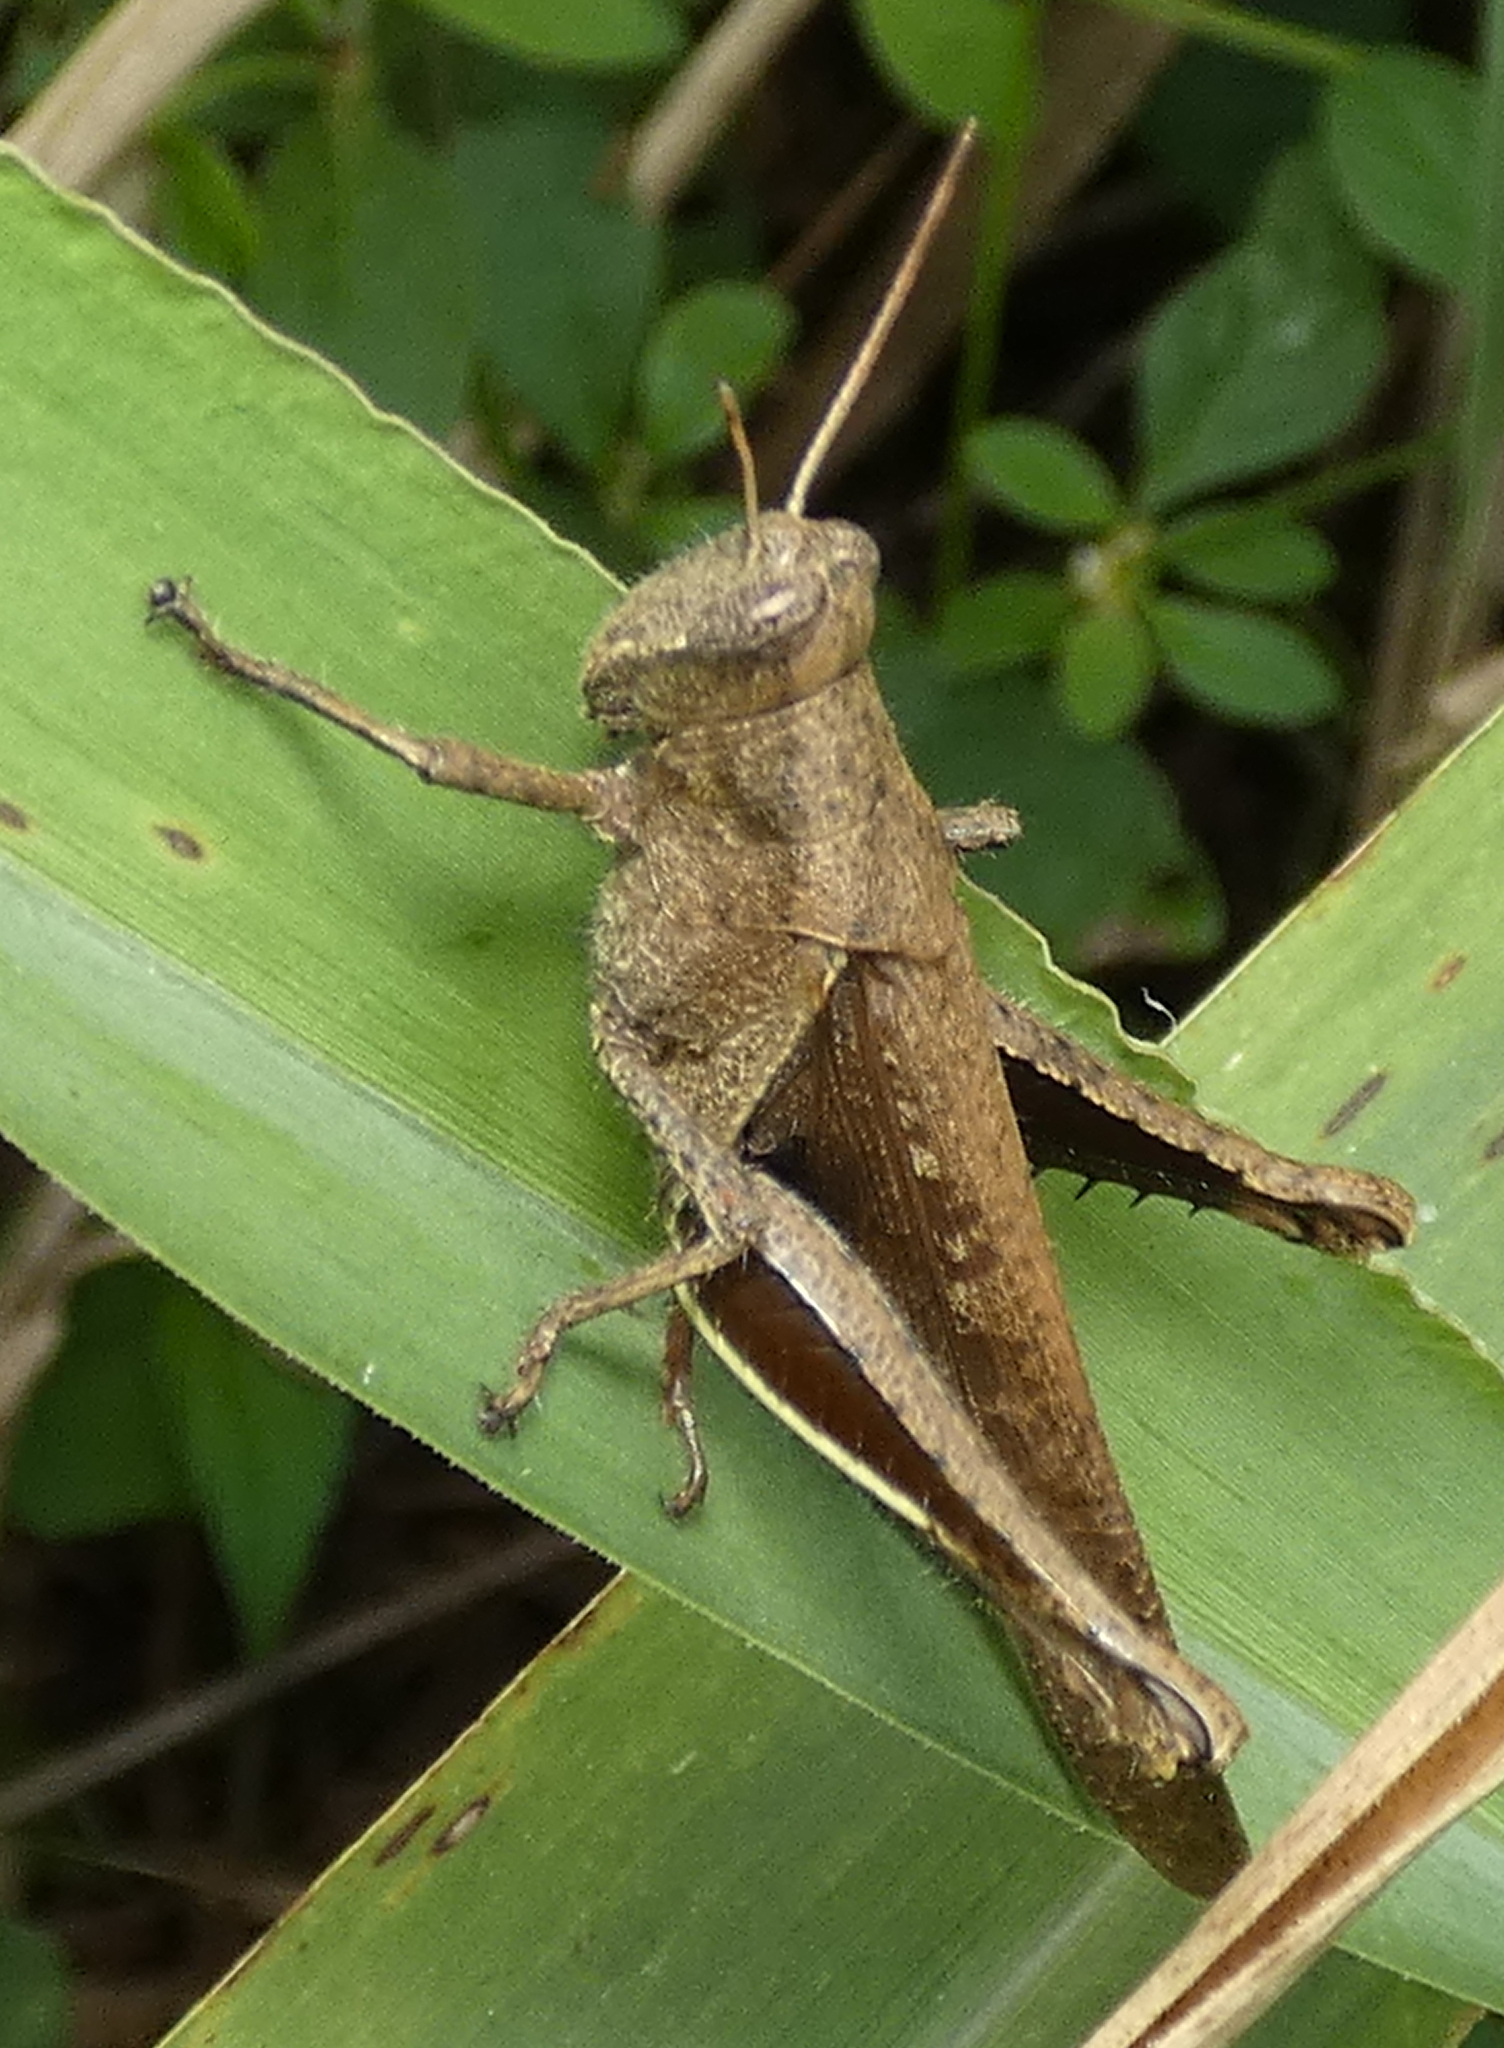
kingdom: Animalia
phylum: Arthropoda
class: Insecta
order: Orthoptera
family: Acrididae
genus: Abracris
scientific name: Abracris flavolineata
